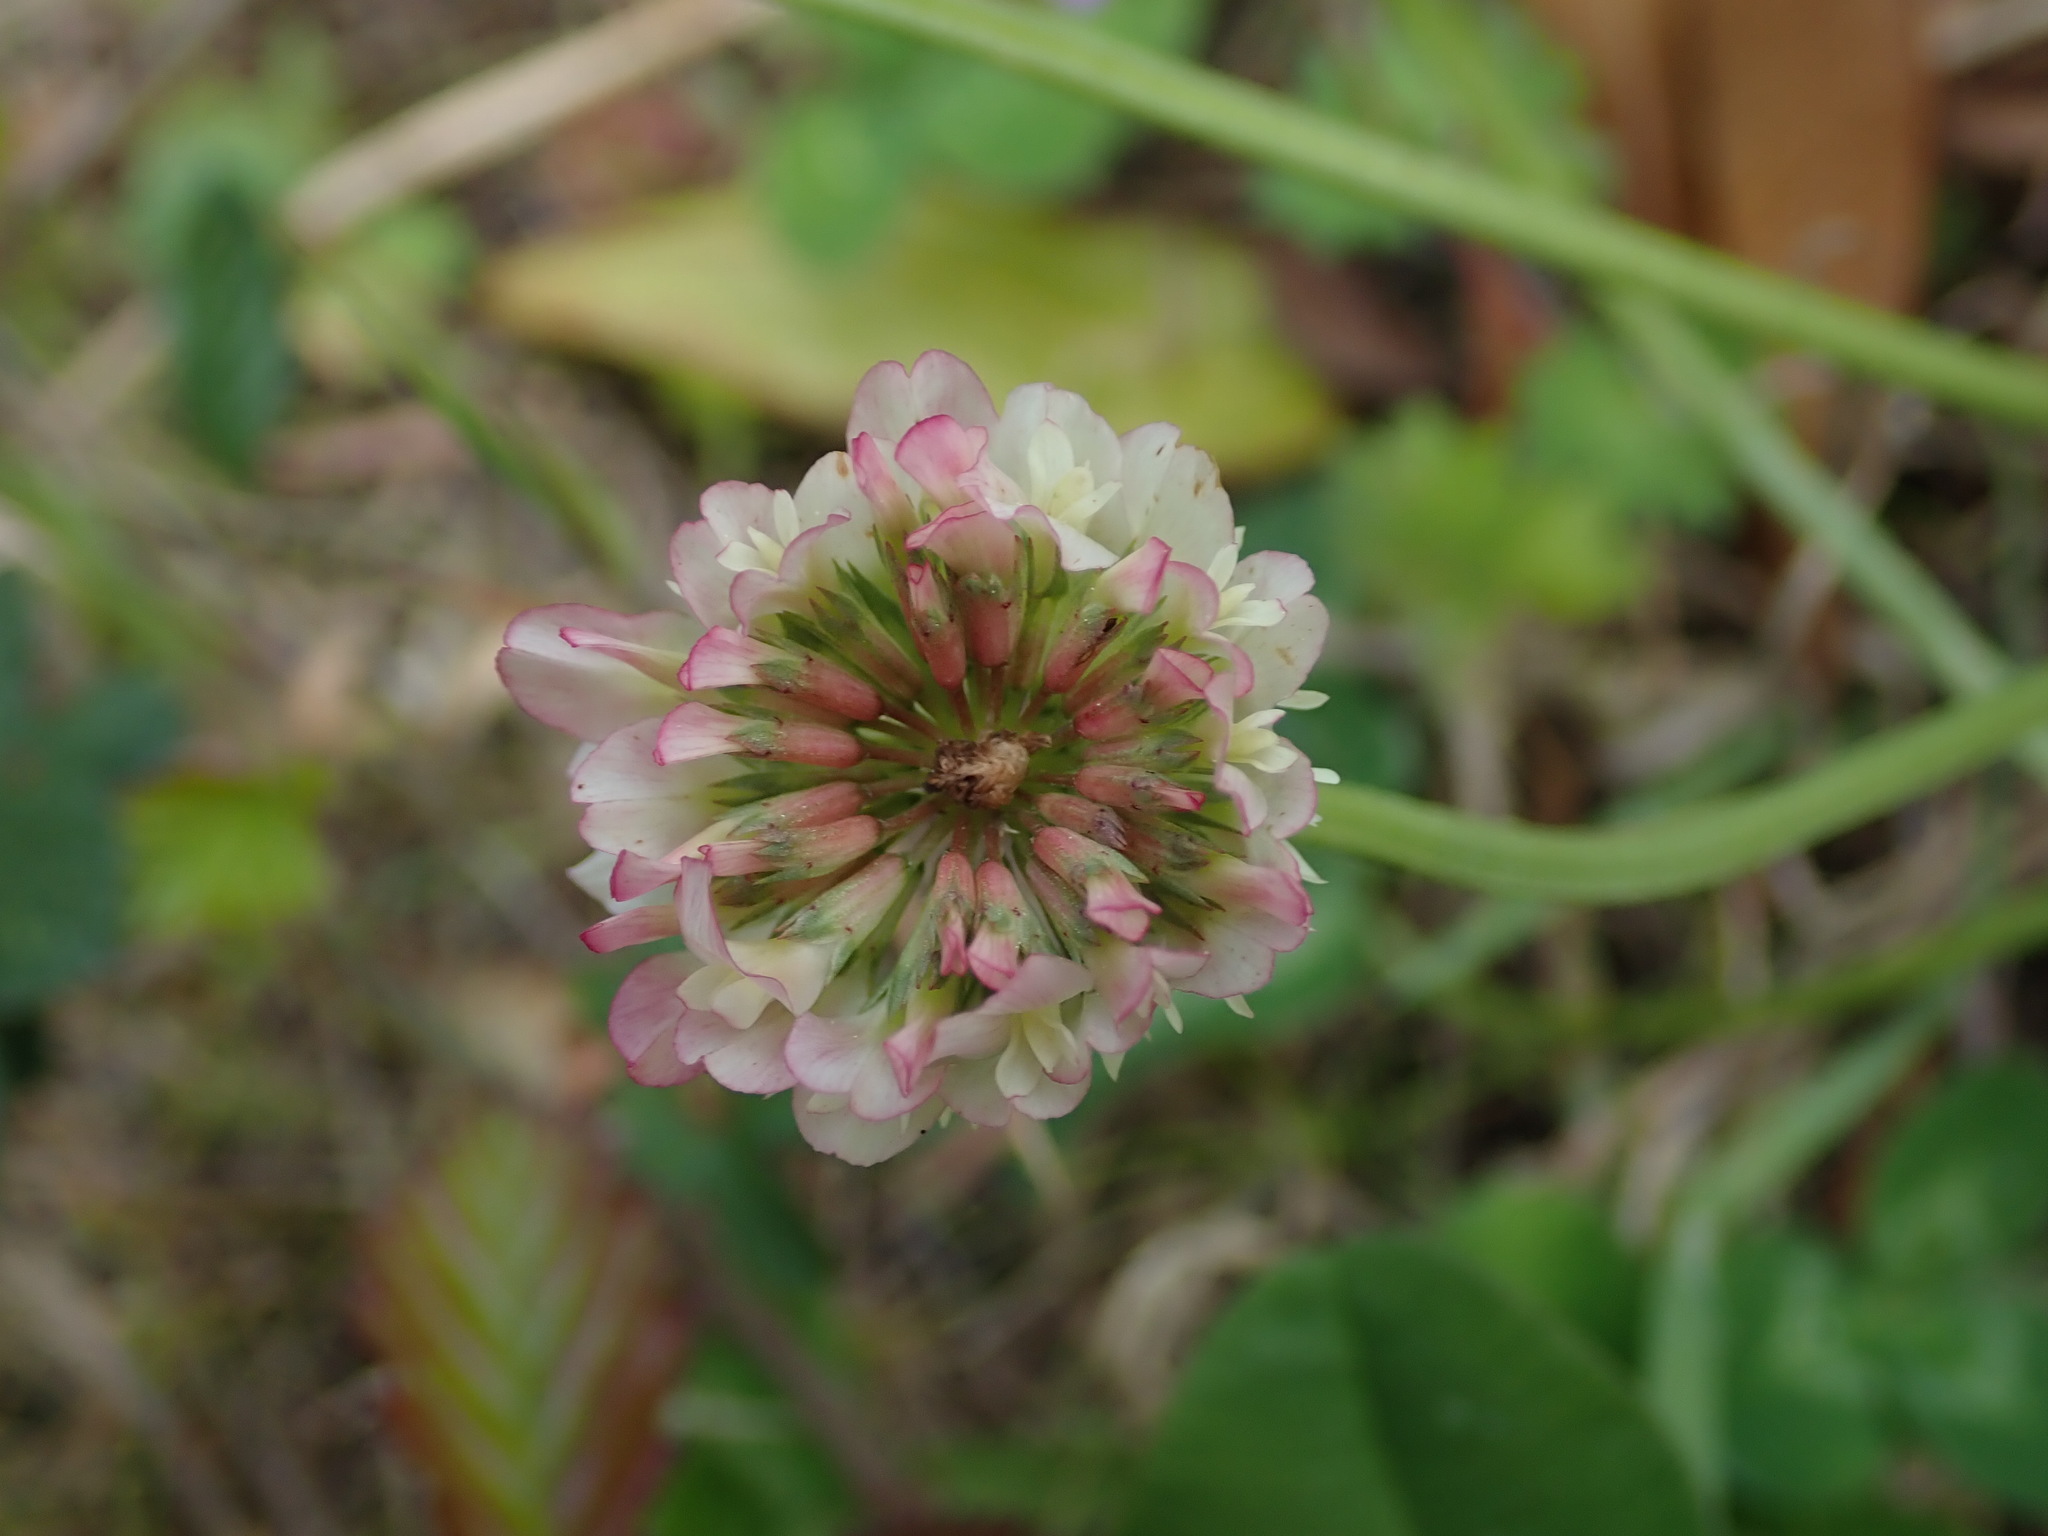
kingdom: Plantae
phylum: Tracheophyta
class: Magnoliopsida
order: Fabales
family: Fabaceae
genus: Trifolium
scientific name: Trifolium repens
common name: White clover
